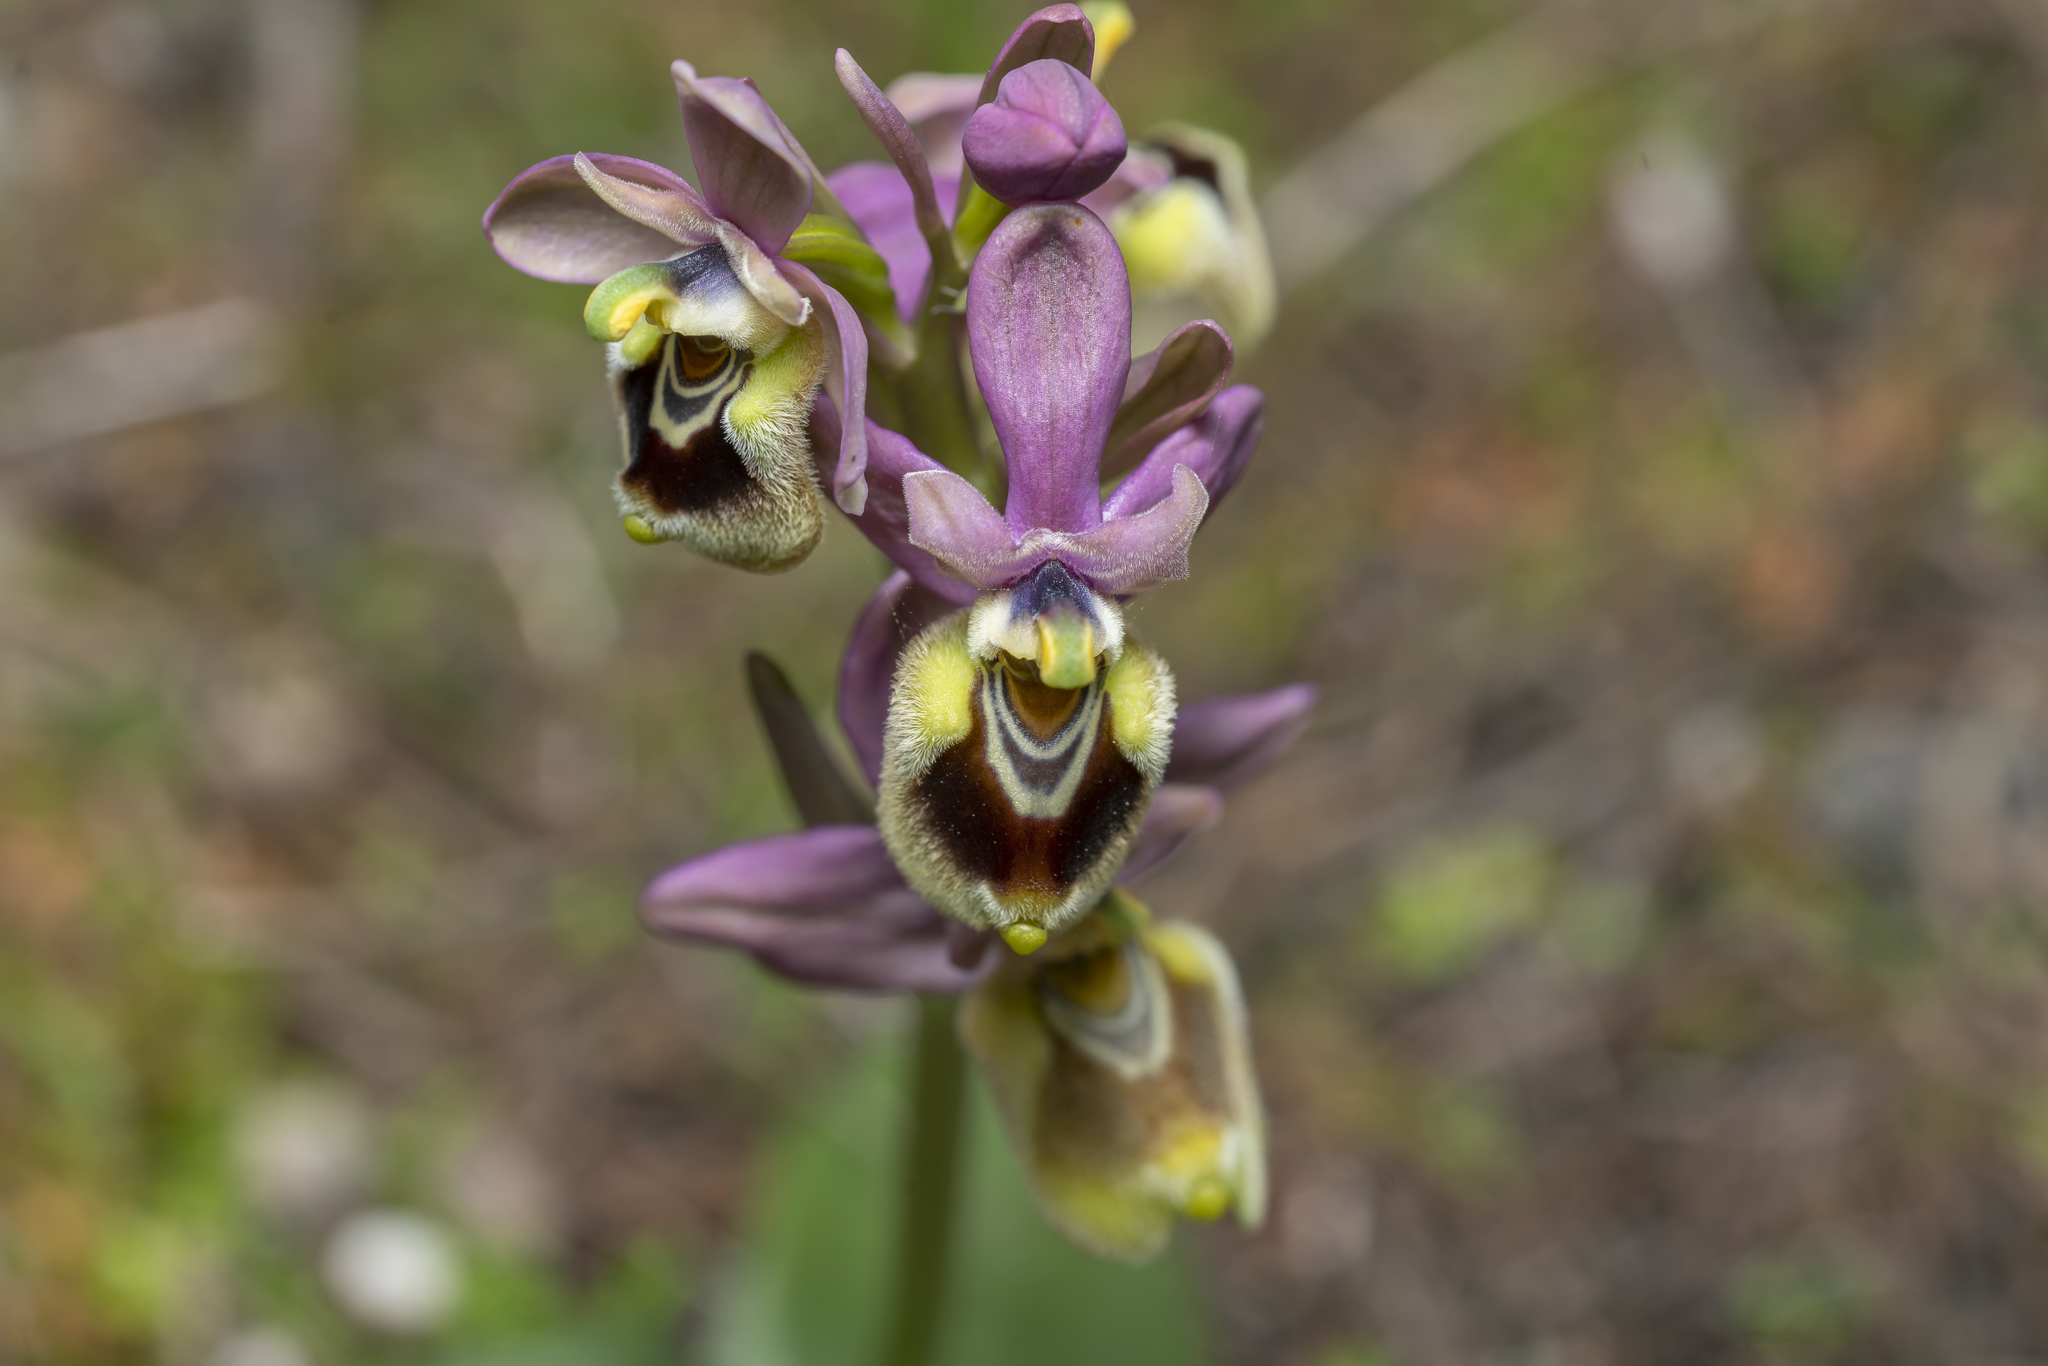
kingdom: Plantae
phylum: Tracheophyta
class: Liliopsida
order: Asparagales
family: Orchidaceae
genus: Ophrys
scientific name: Ophrys tenthredinifera
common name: Sawfly orchid
